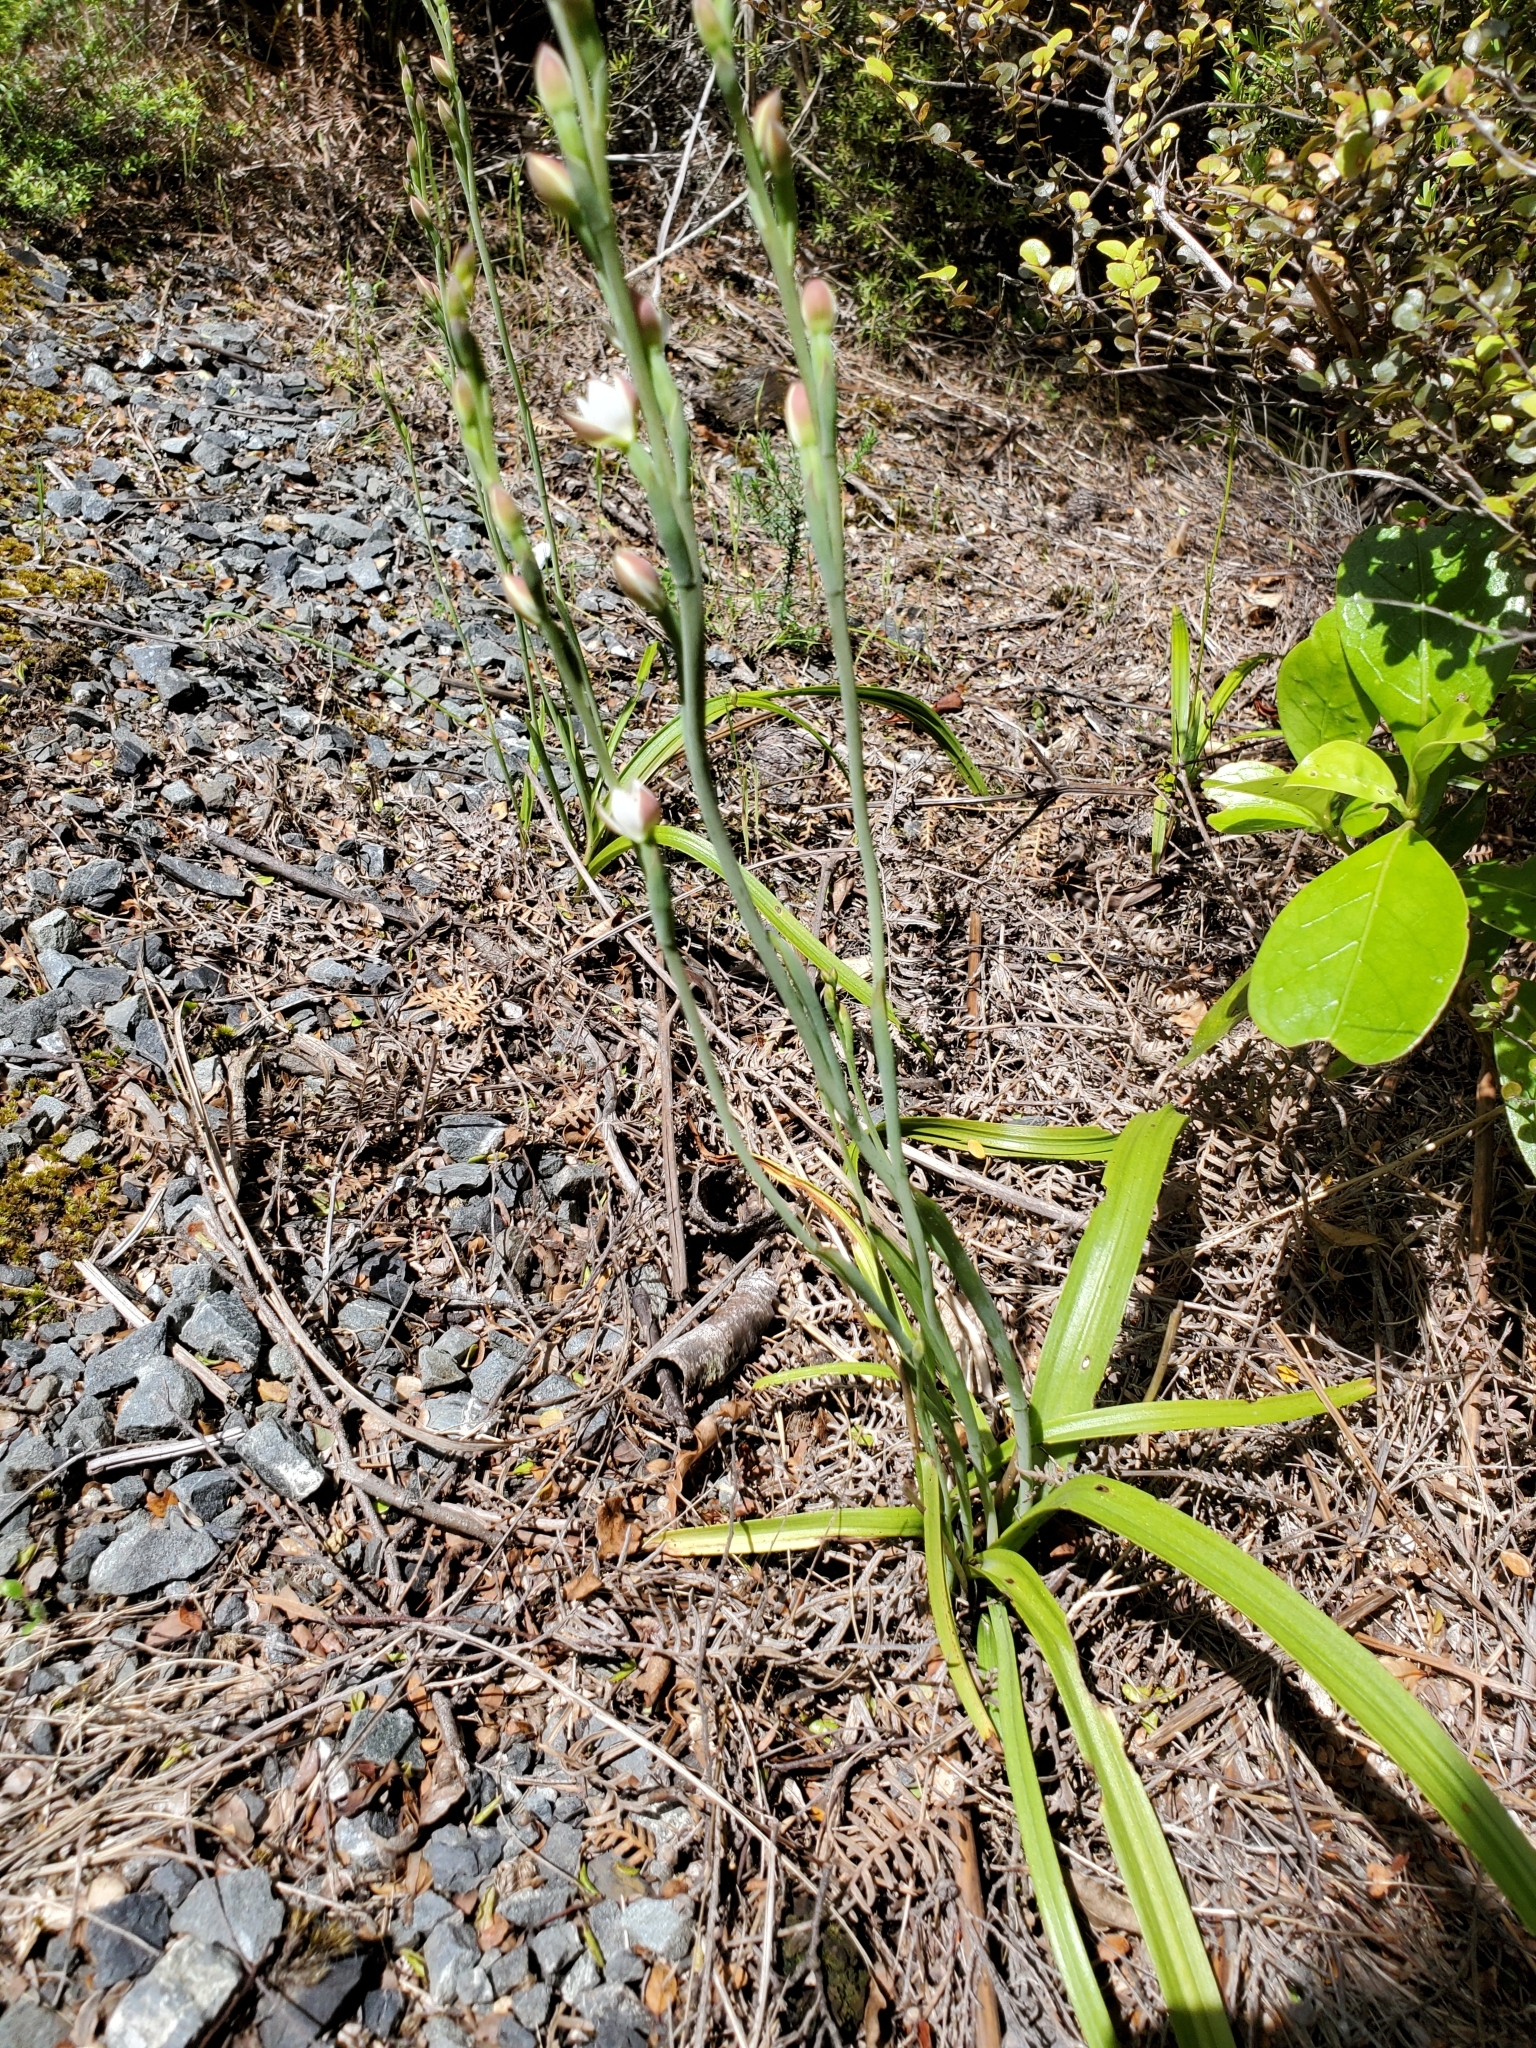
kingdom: Plantae
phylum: Tracheophyta
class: Liliopsida
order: Asparagales
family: Orchidaceae
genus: Thelymitra
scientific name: Thelymitra longifolia
